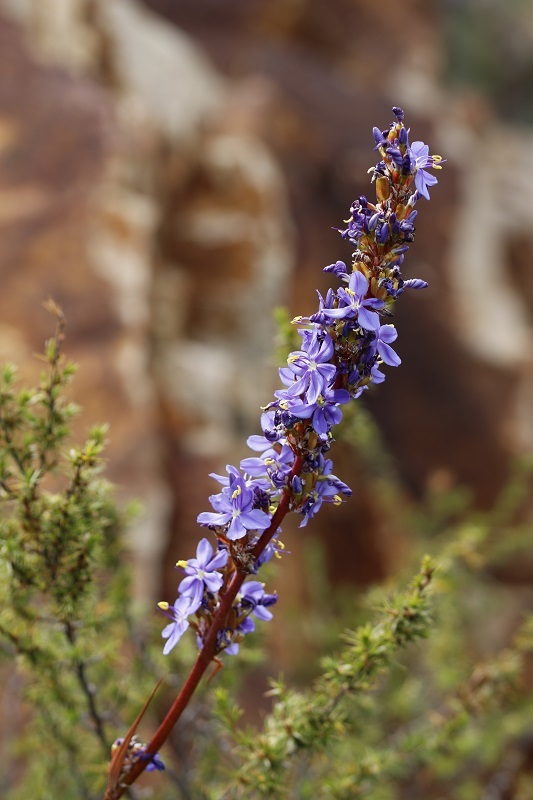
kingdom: Plantae
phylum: Tracheophyta
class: Liliopsida
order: Asparagales
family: Iridaceae
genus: Aristea
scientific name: Aristea capitata
